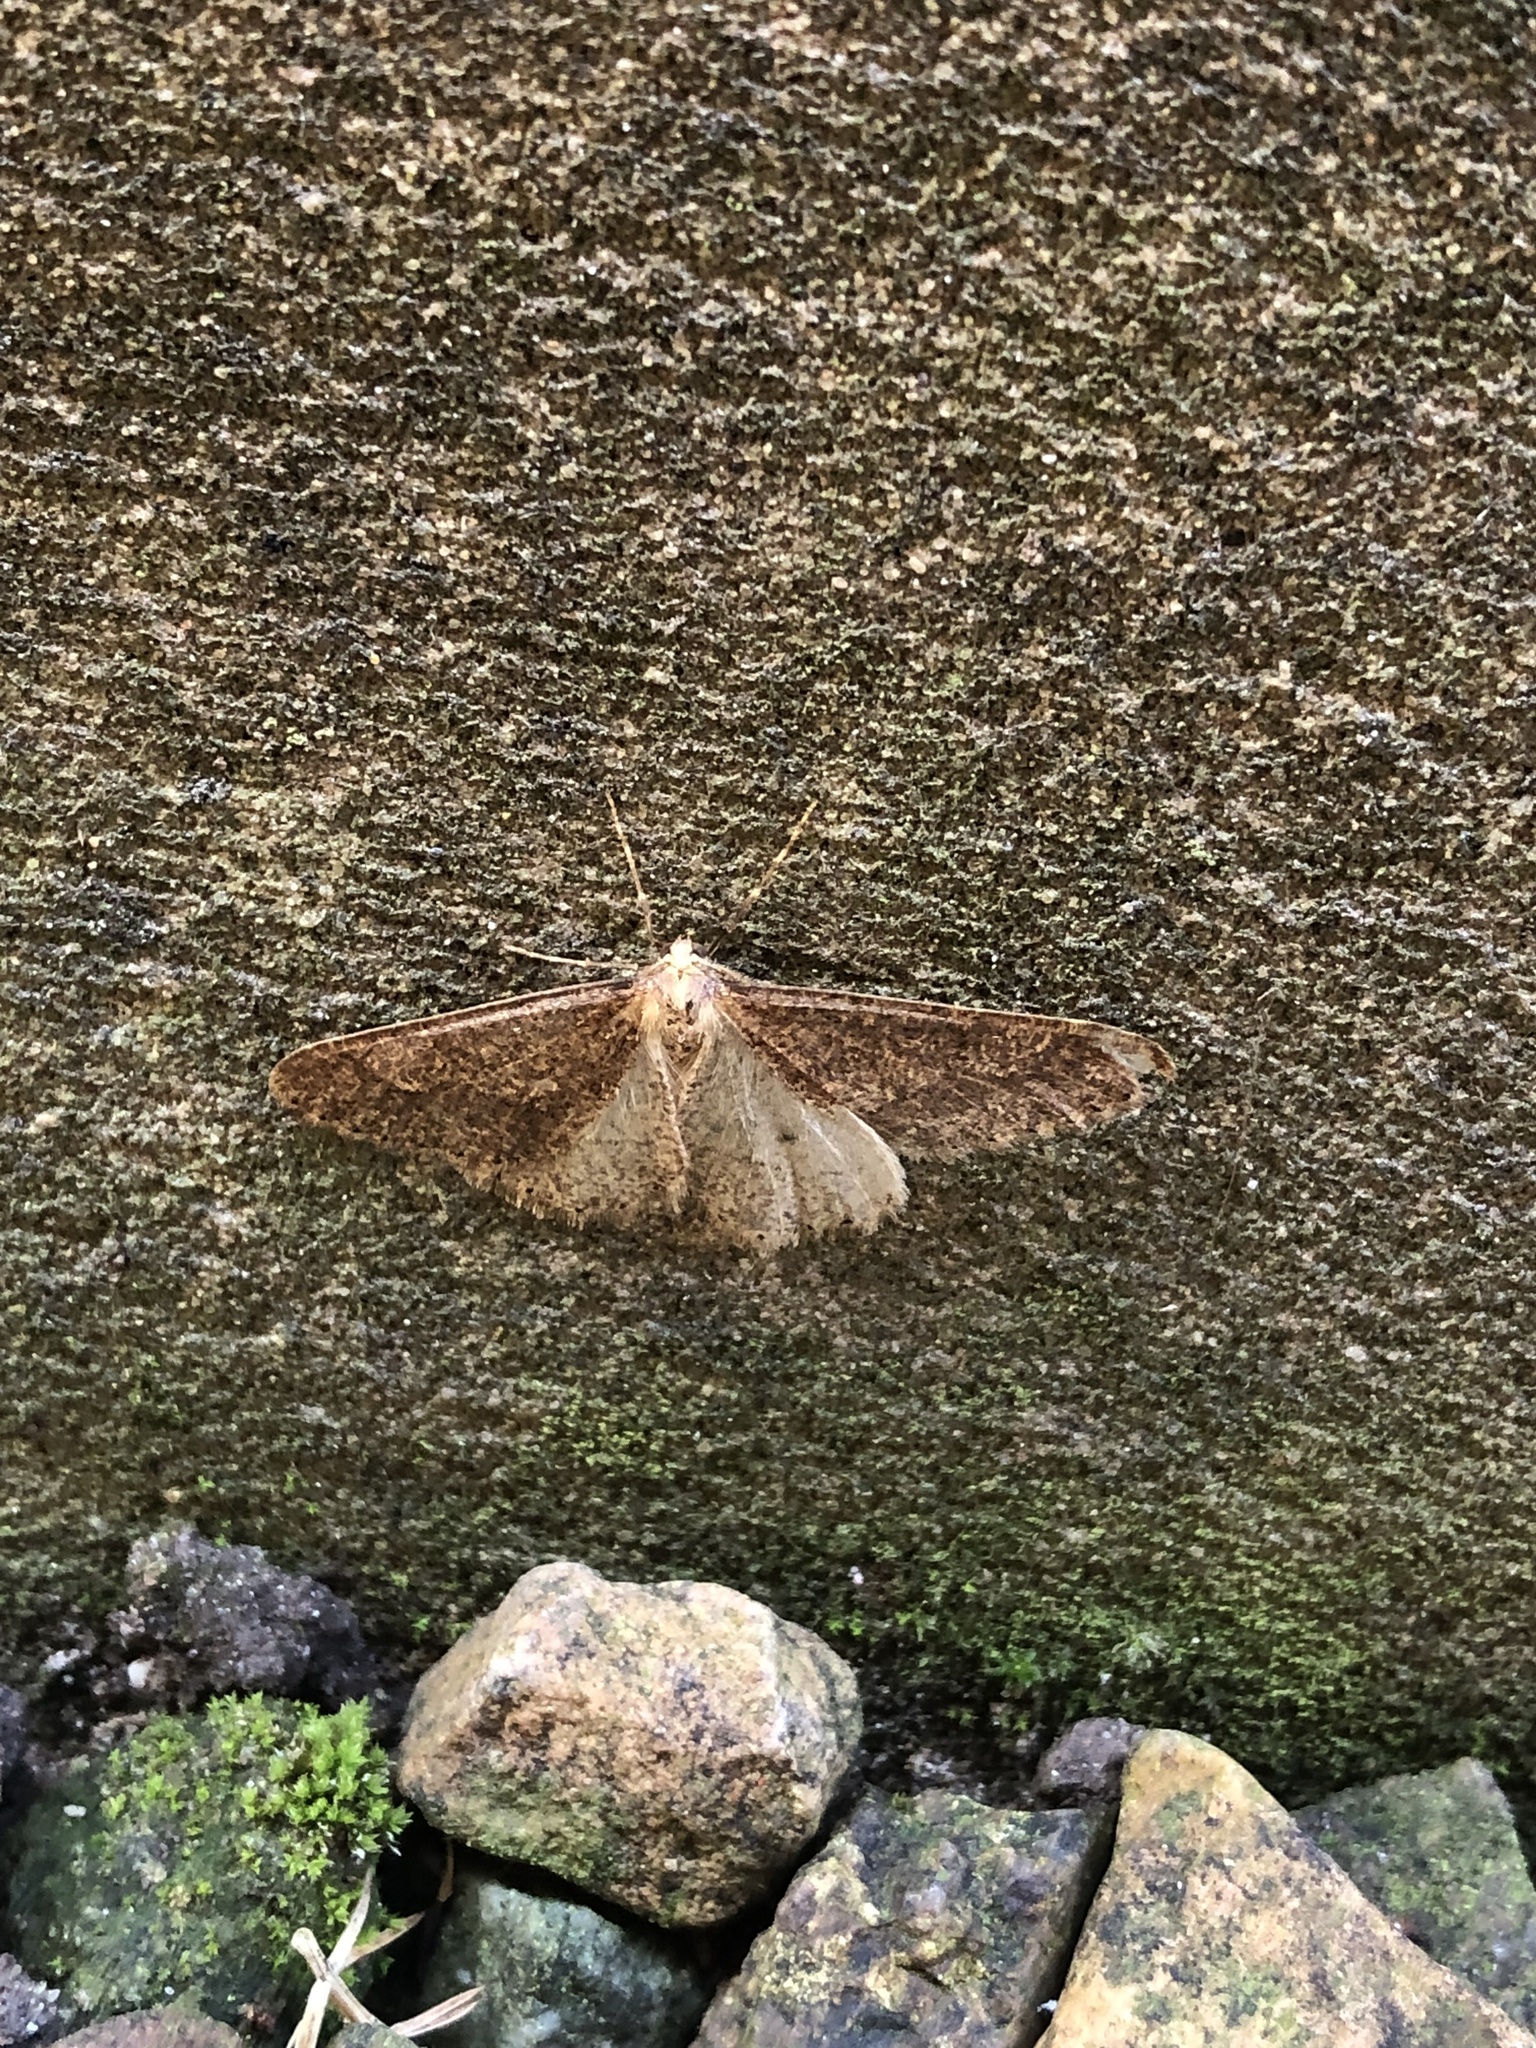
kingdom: Animalia
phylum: Arthropoda
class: Insecta
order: Lepidoptera
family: Geometridae
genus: Agriopis
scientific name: Agriopis marginaria
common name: Dotted border
